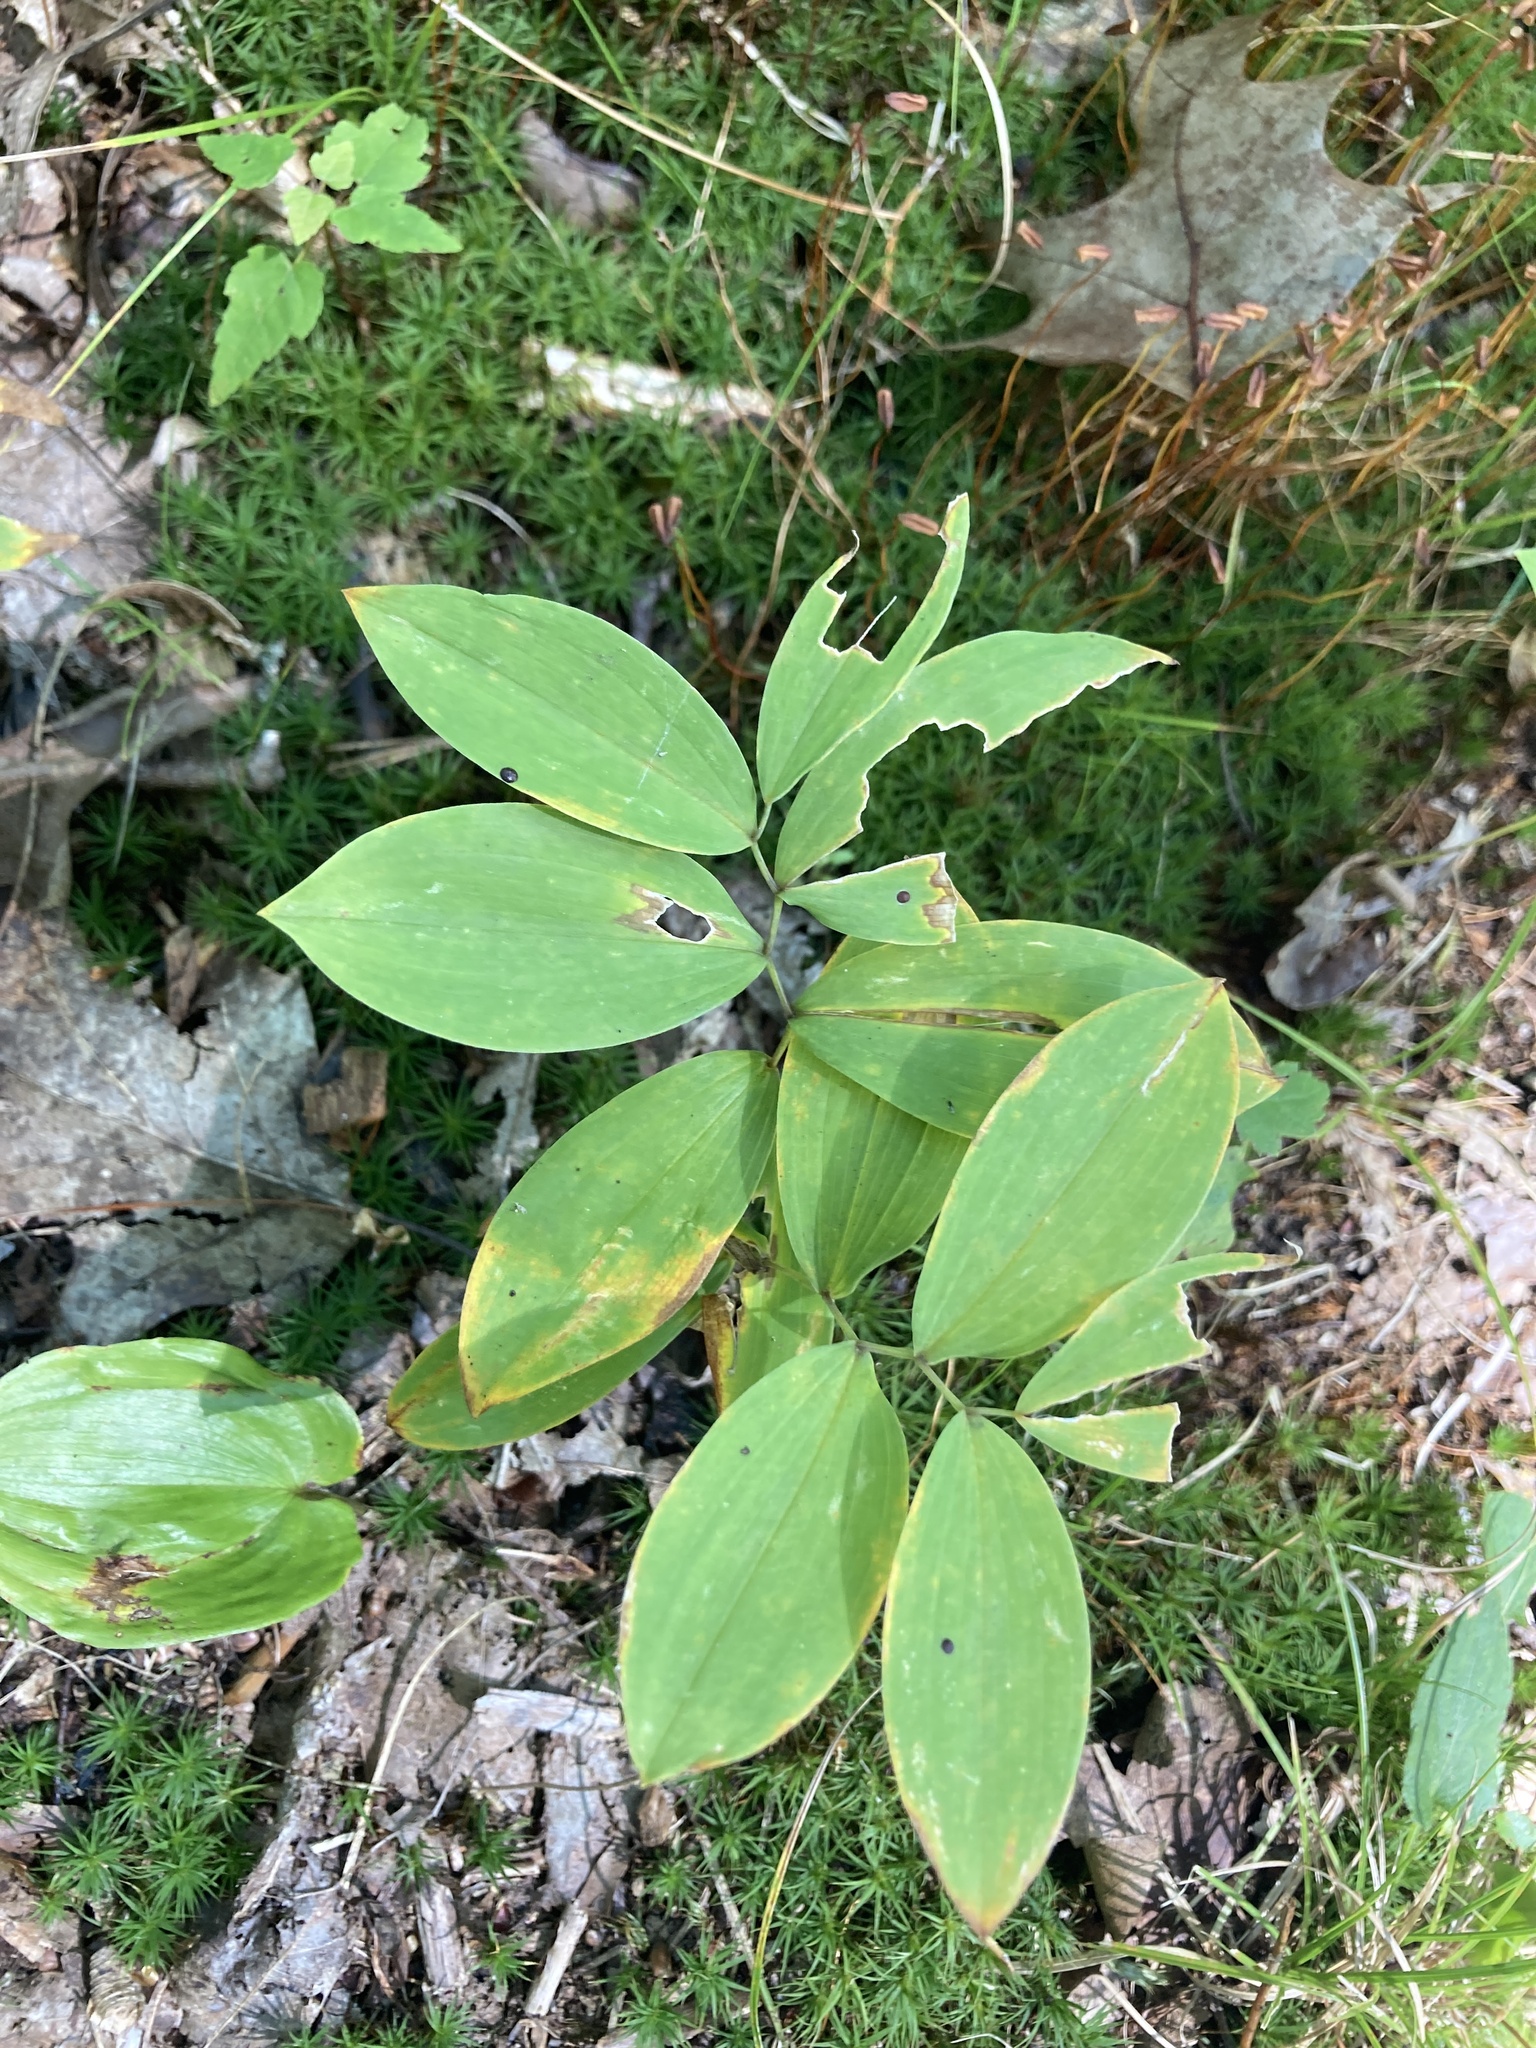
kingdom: Plantae
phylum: Tracheophyta
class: Liliopsida
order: Liliales
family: Colchicaceae
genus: Uvularia
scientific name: Uvularia sessilifolia
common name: Straw-lily
